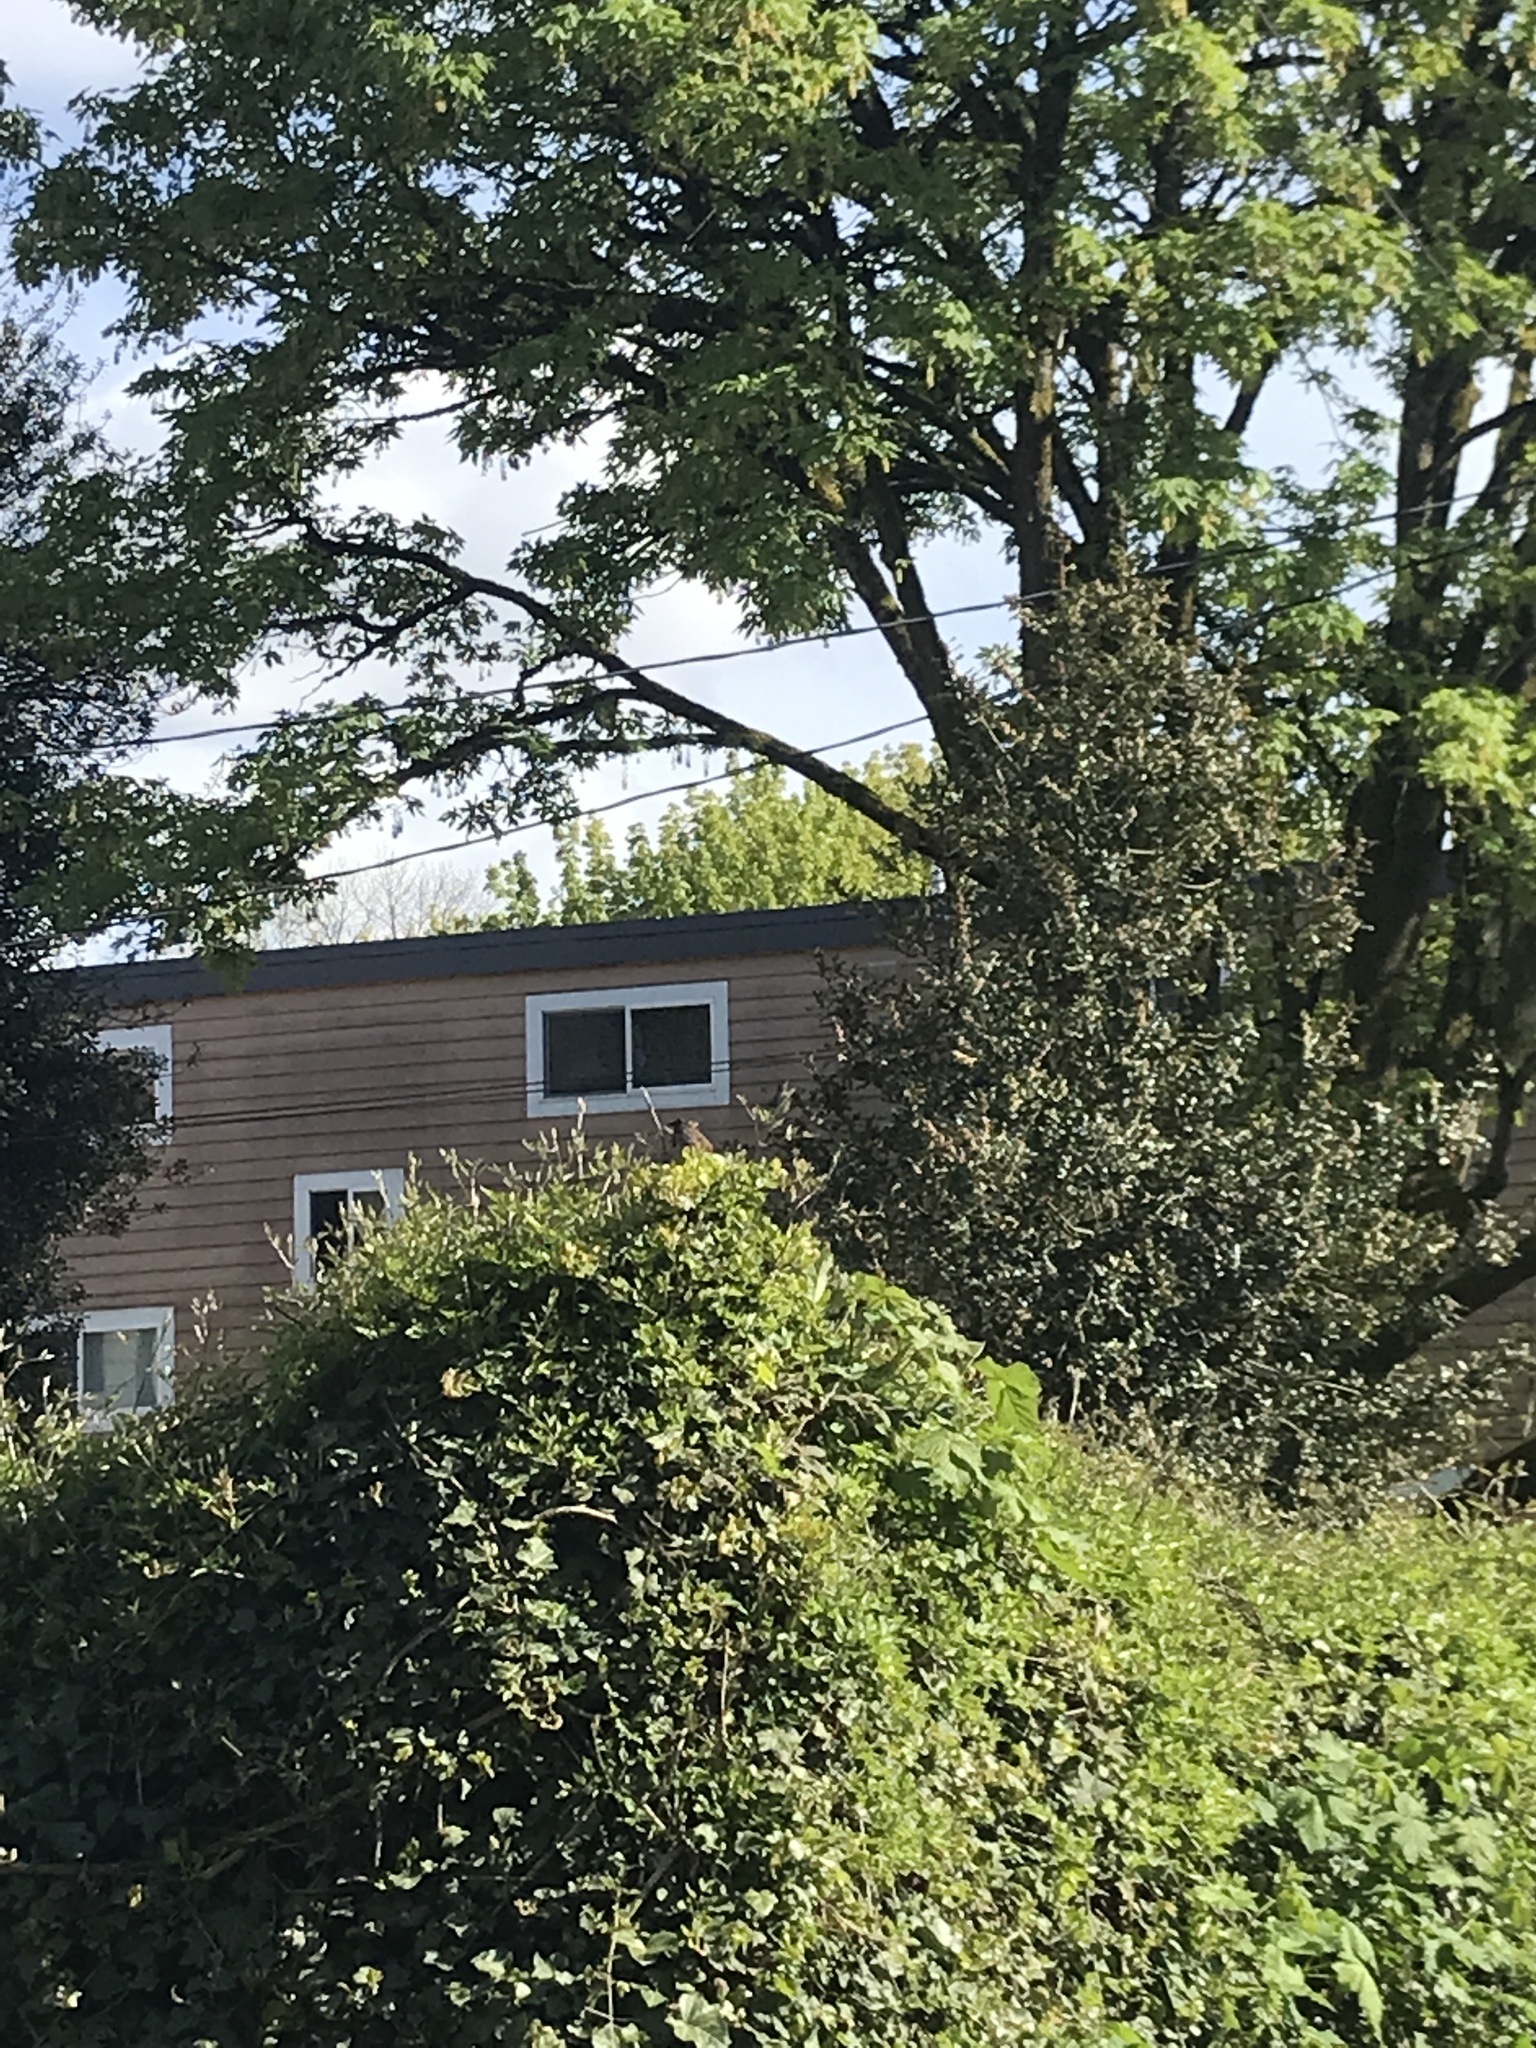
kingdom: Animalia
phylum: Chordata
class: Aves
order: Passeriformes
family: Passerellidae
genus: Melospiza
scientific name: Melospiza melodia
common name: Song sparrow
